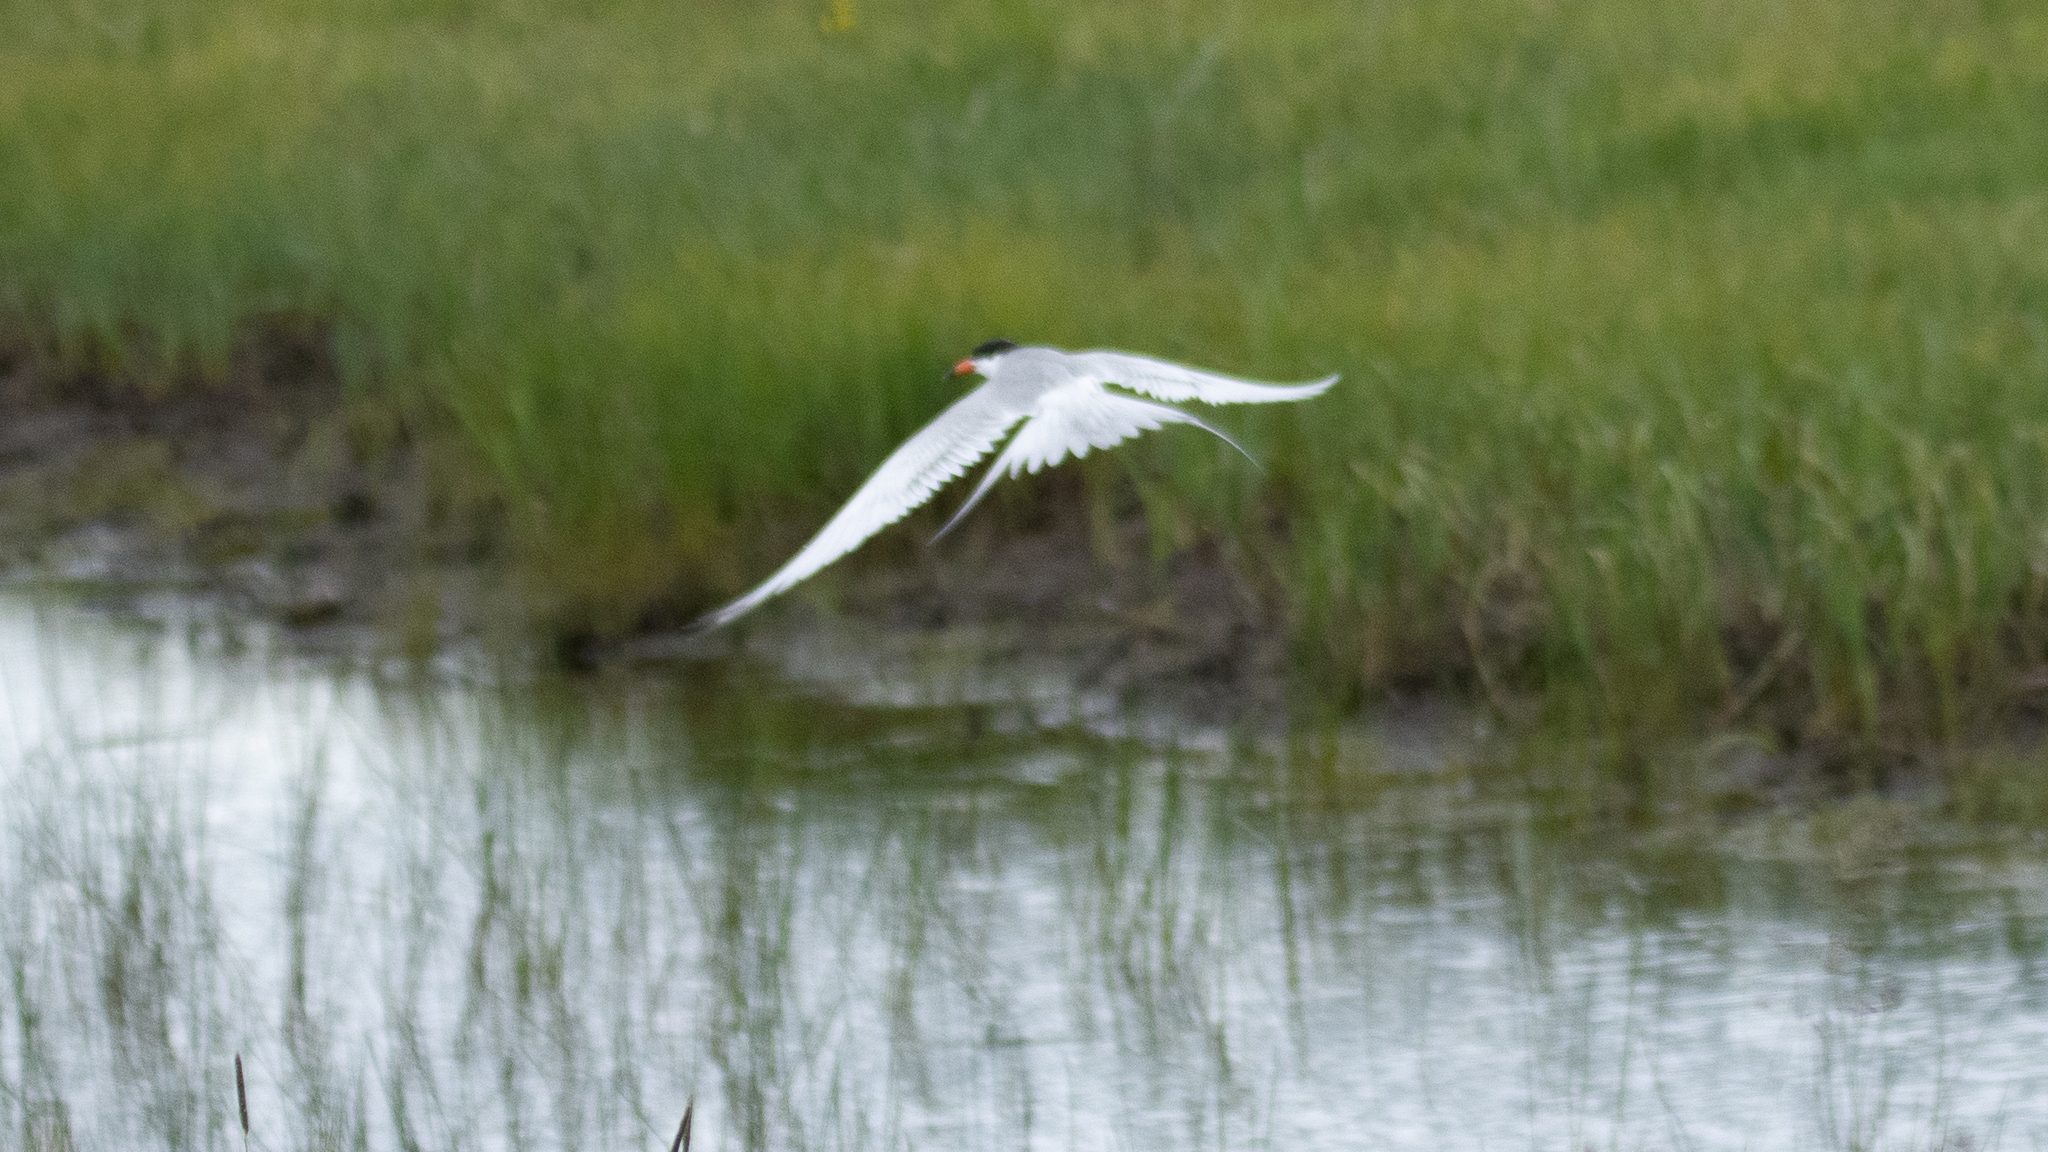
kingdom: Animalia
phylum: Chordata
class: Aves
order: Charadriiformes
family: Laridae
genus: Sterna
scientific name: Sterna forsteri
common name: Forster's tern
